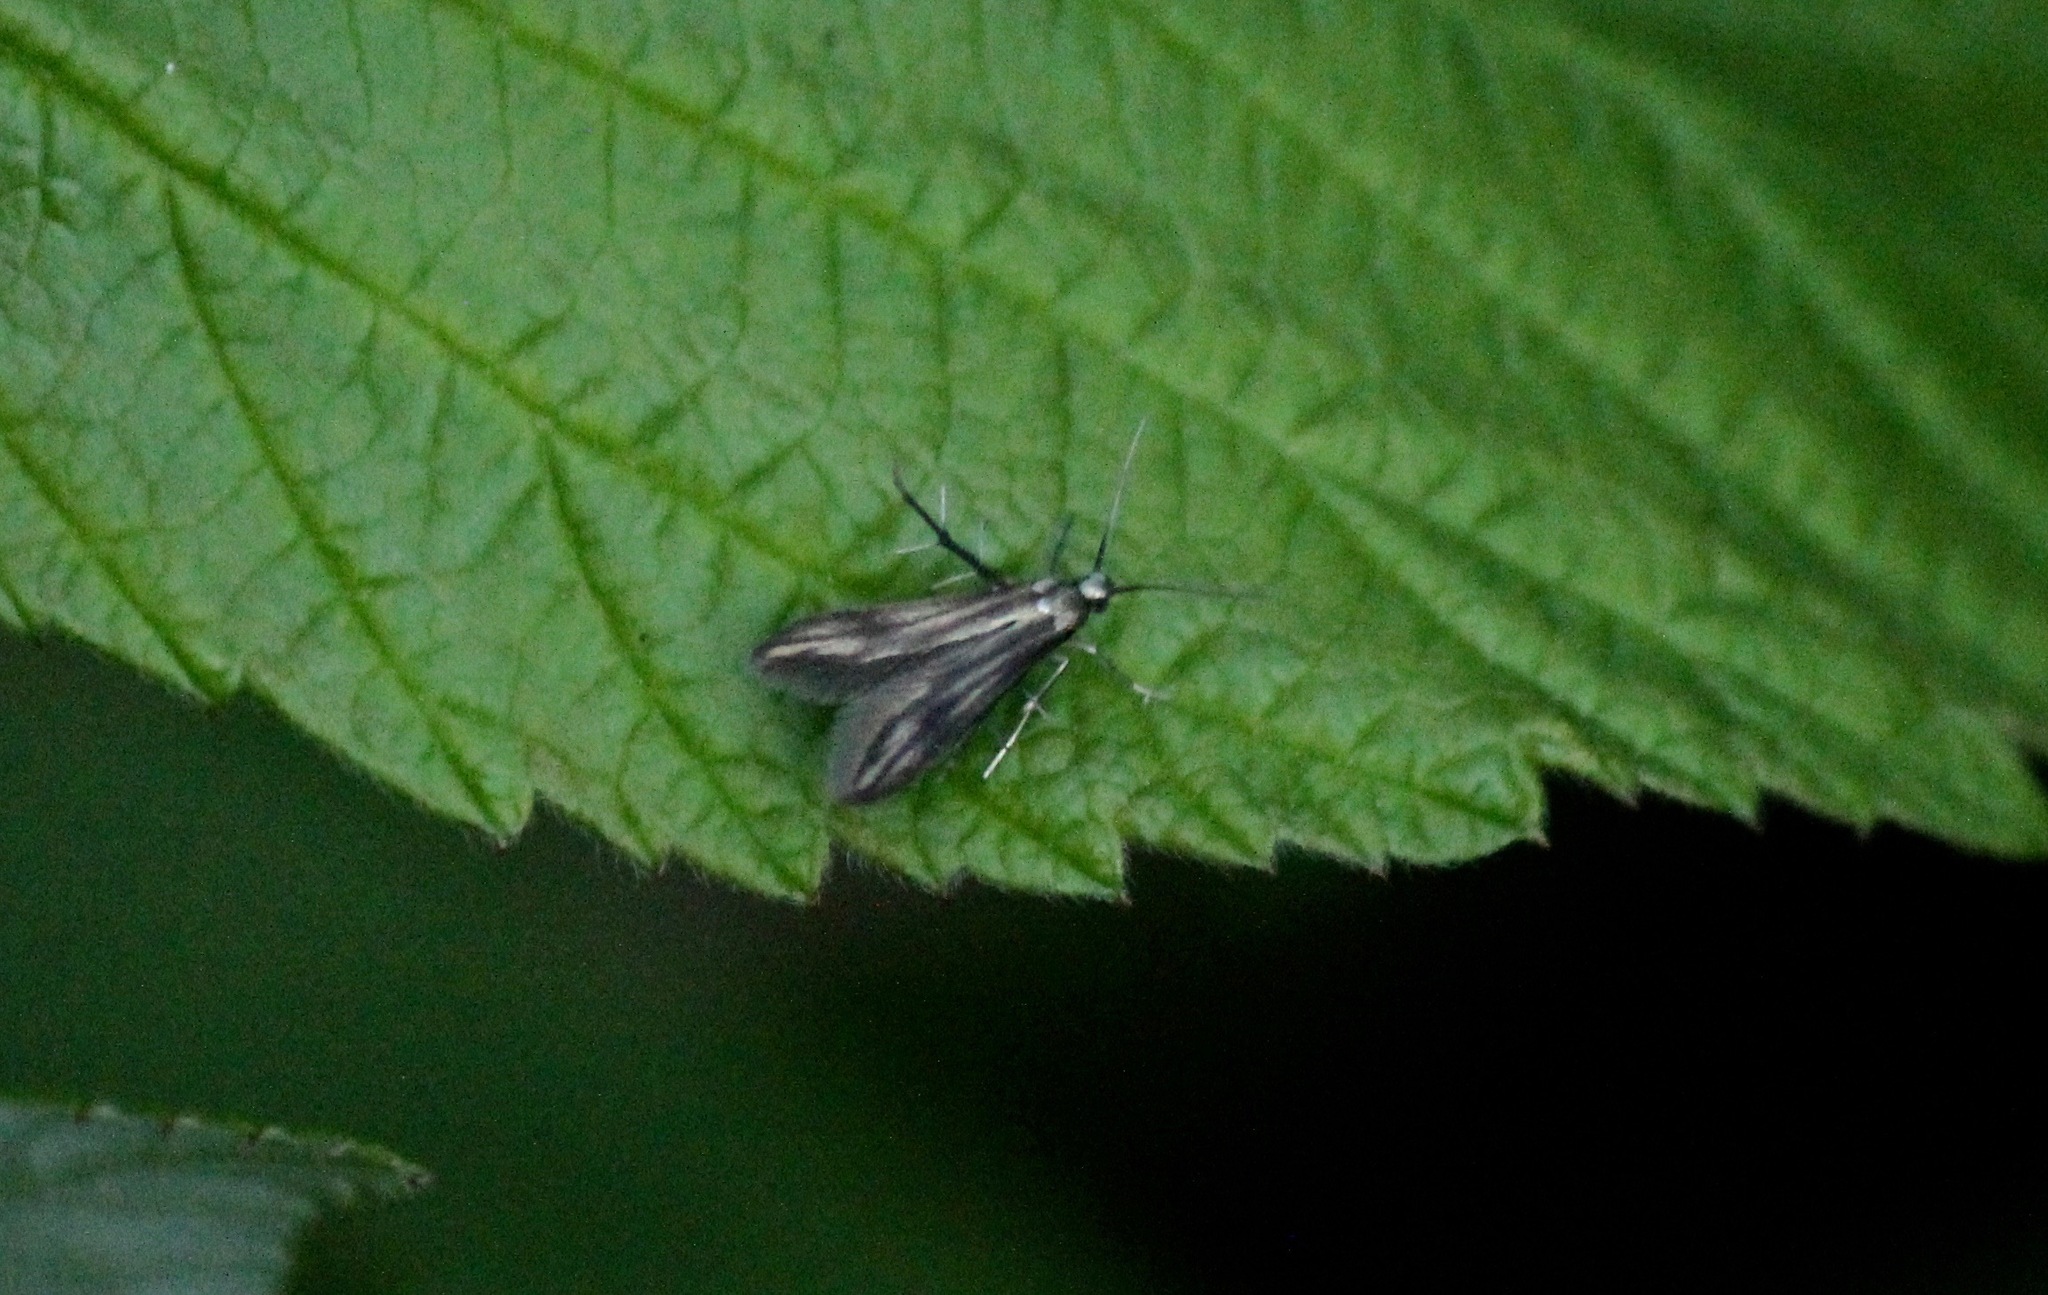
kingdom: Animalia
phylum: Arthropoda
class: Insecta
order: Lepidoptera
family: Schreckensteiniidae
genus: Schreckensteinia
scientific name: Schreckensteinia festaliella
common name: Blackberry skeletonizer
